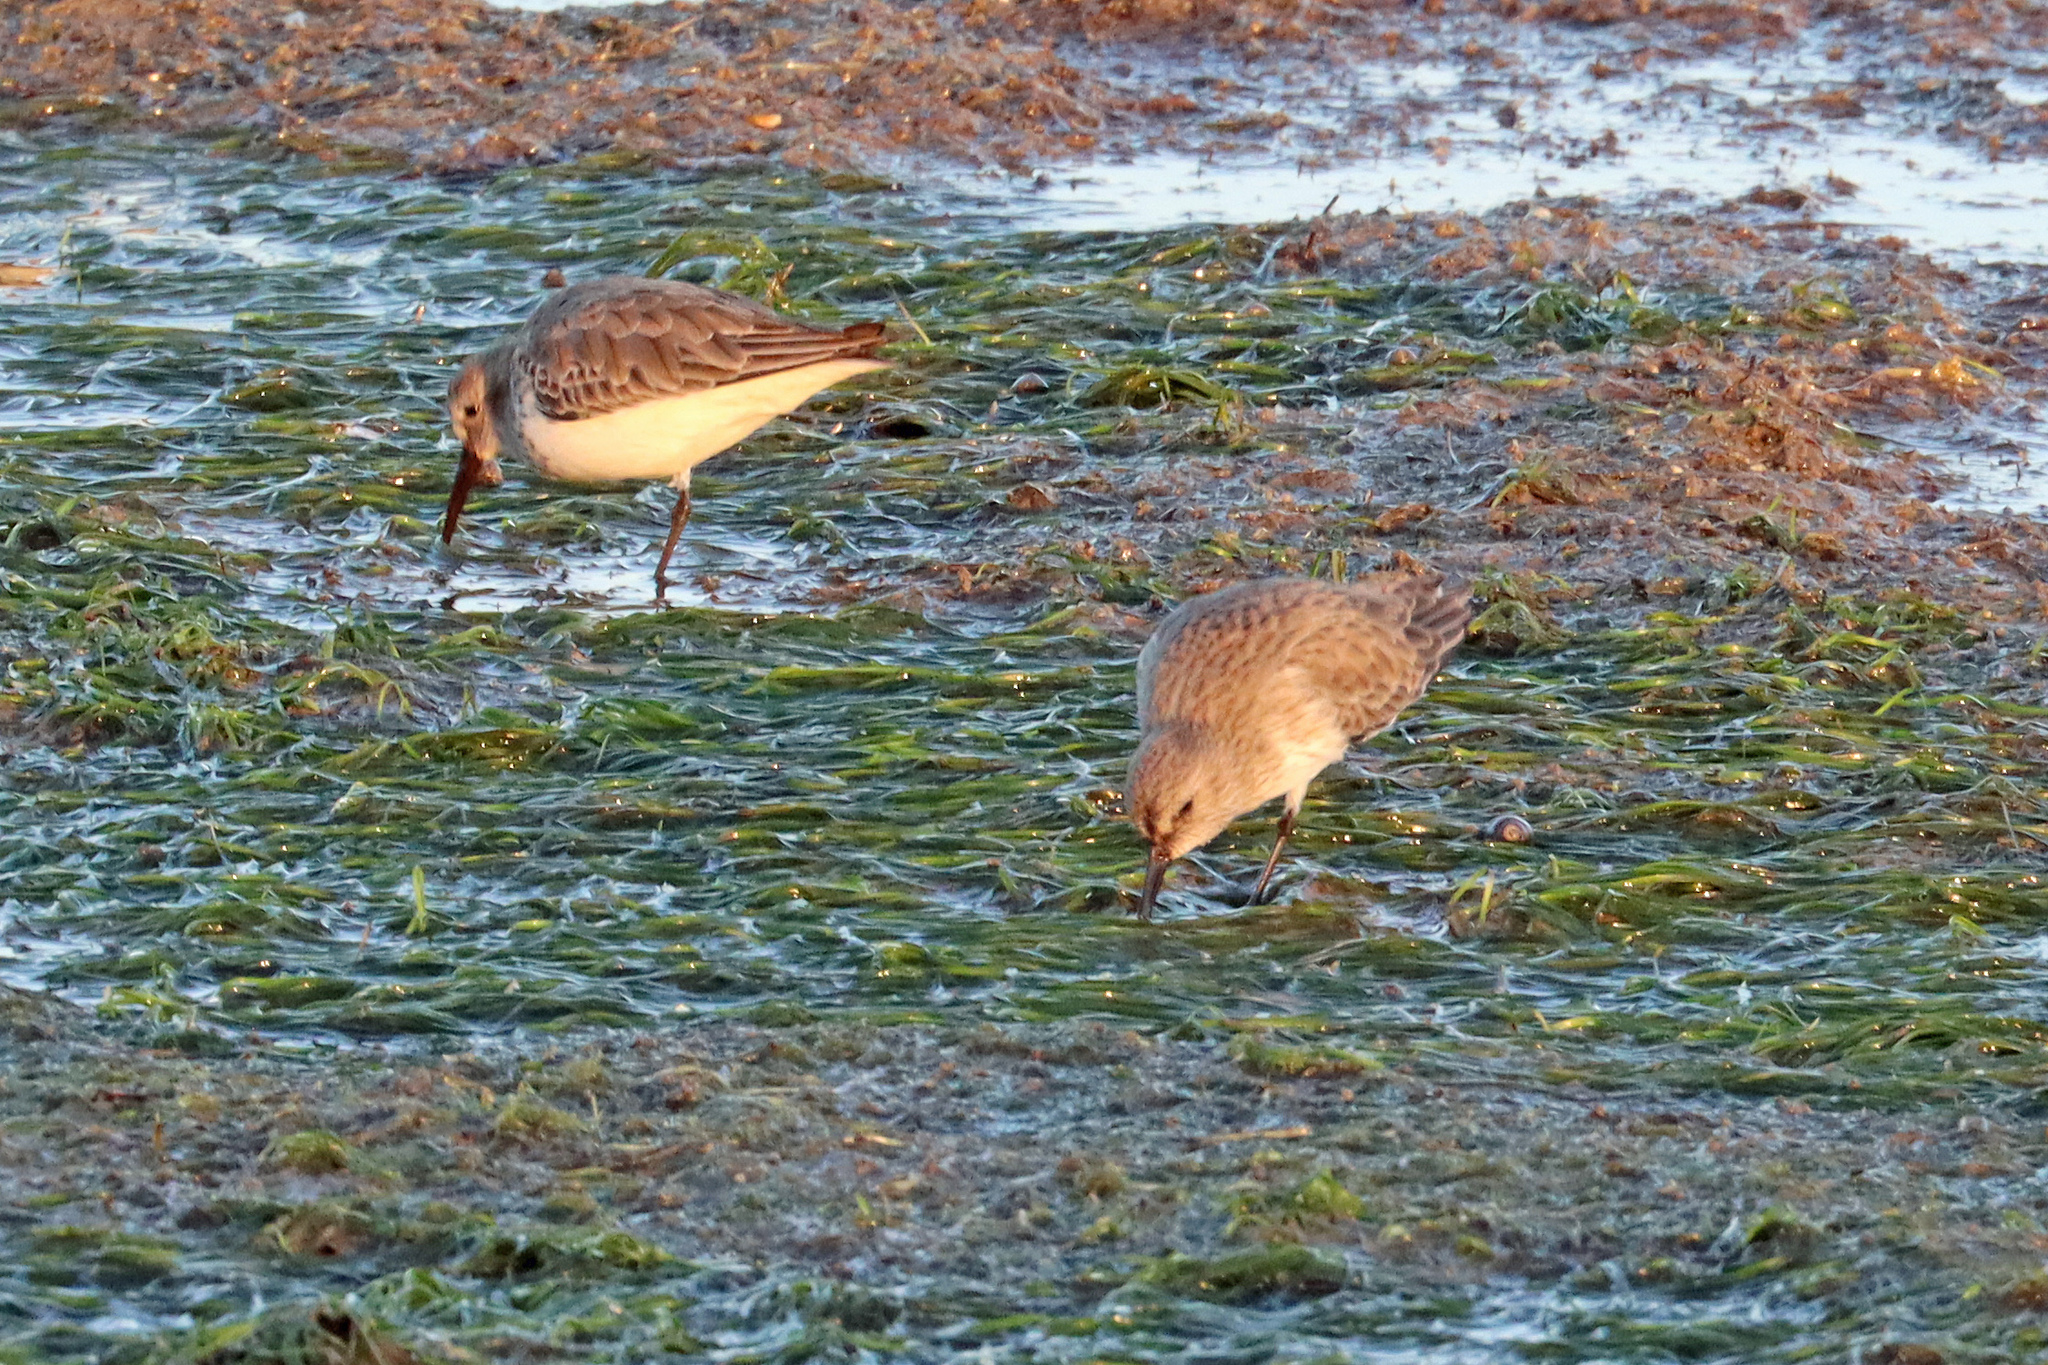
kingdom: Animalia
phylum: Chordata
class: Aves
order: Charadriiformes
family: Scolopacidae
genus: Calidris
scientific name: Calidris alpina
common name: Dunlin
